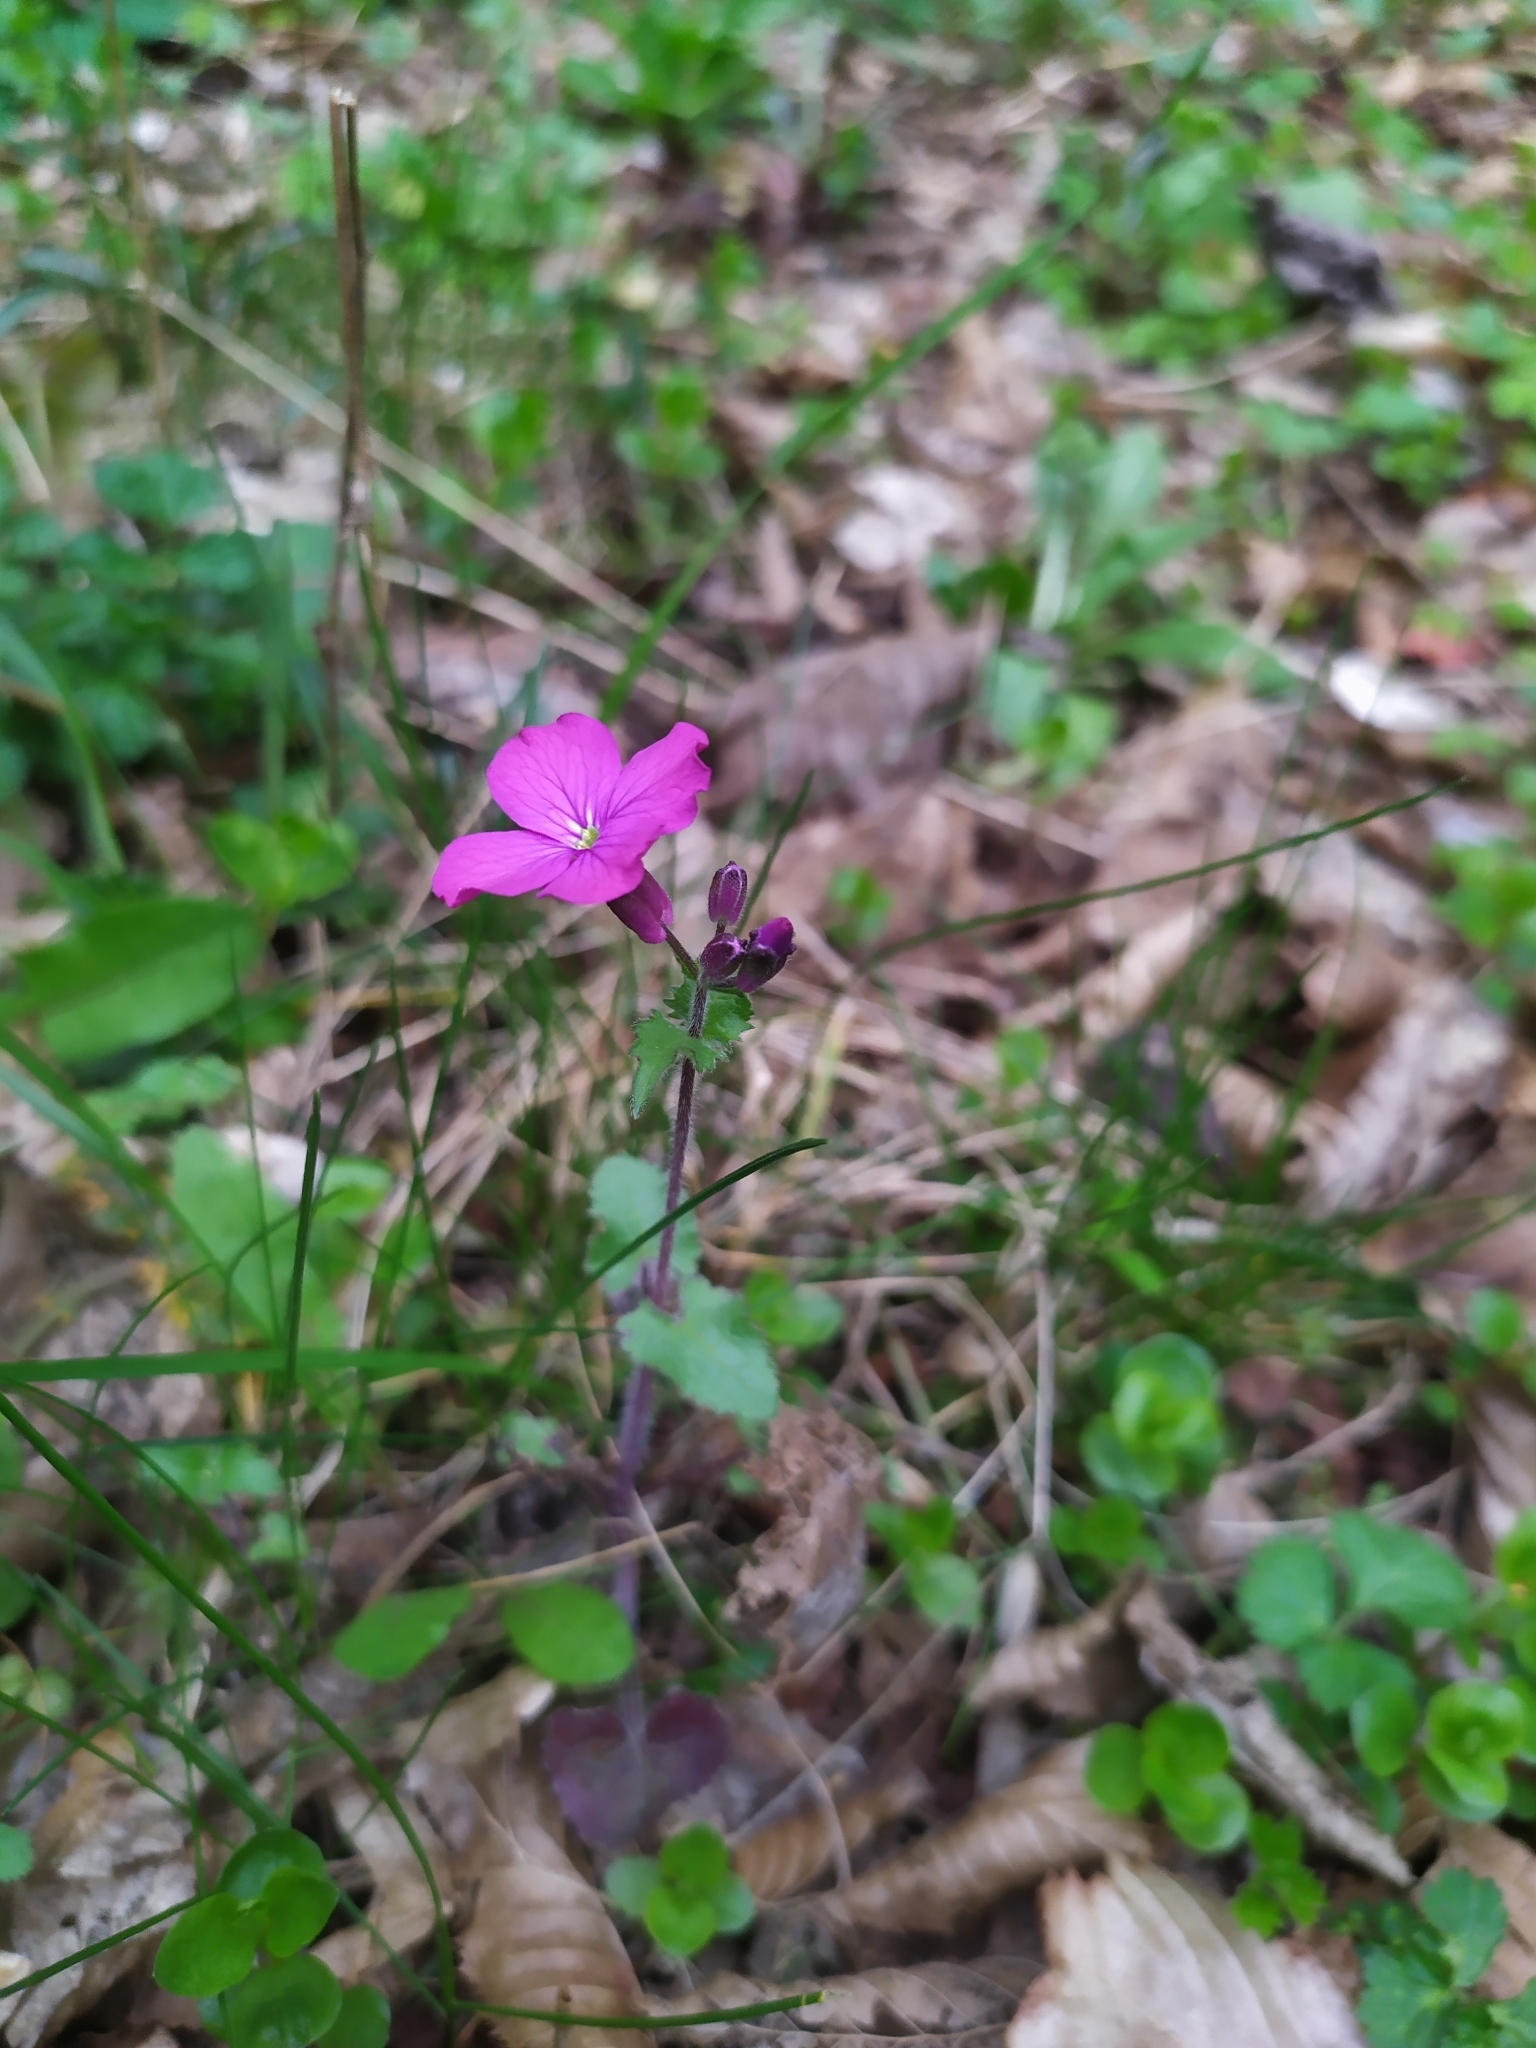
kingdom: Plantae
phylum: Tracheophyta
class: Magnoliopsida
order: Brassicales
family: Brassicaceae
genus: Lunaria
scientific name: Lunaria annua
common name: Honesty
